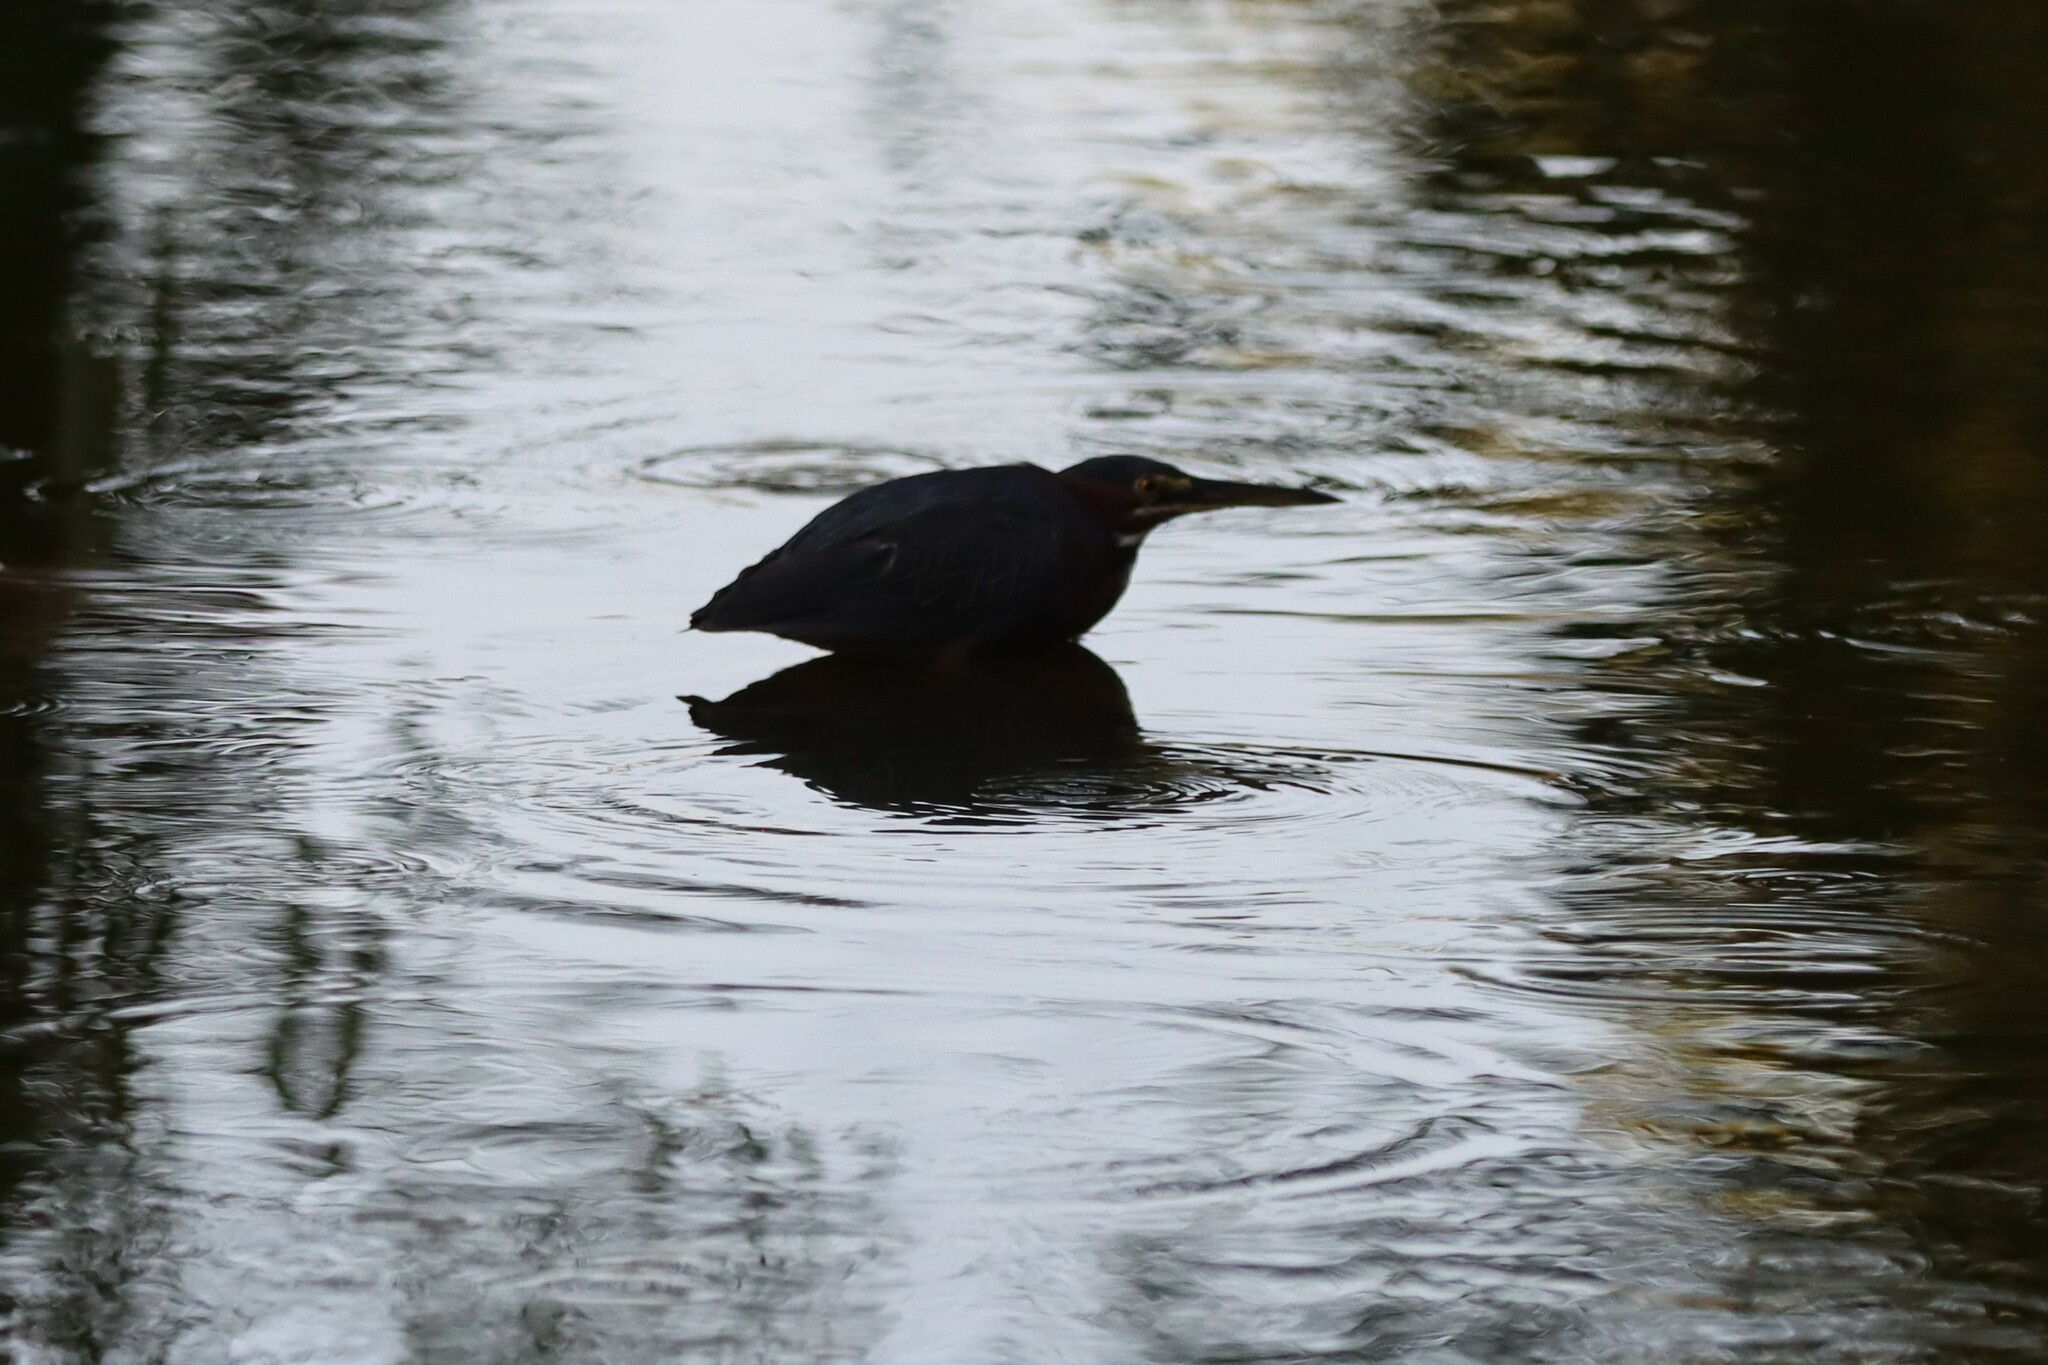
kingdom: Animalia
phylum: Chordata
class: Aves
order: Pelecaniformes
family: Ardeidae
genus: Butorides
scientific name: Butorides virescens
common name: Green heron
